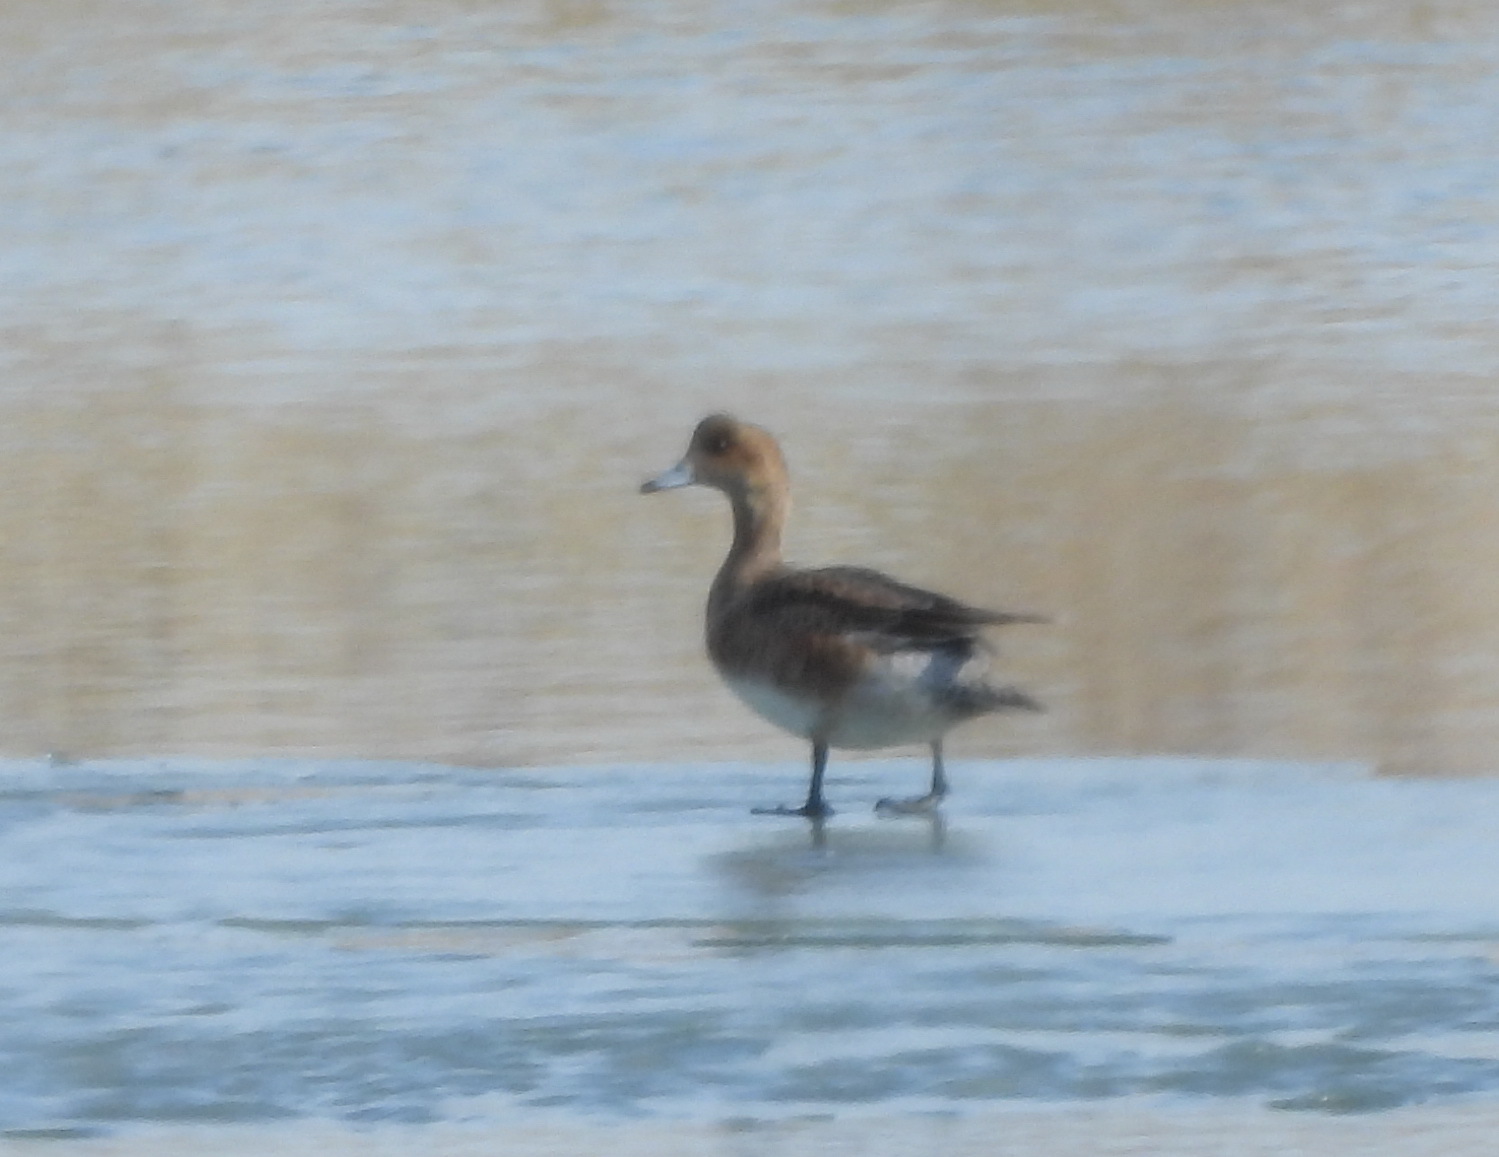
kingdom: Animalia
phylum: Chordata
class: Aves
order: Anseriformes
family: Anatidae
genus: Mareca
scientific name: Mareca penelope
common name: Eurasian wigeon
